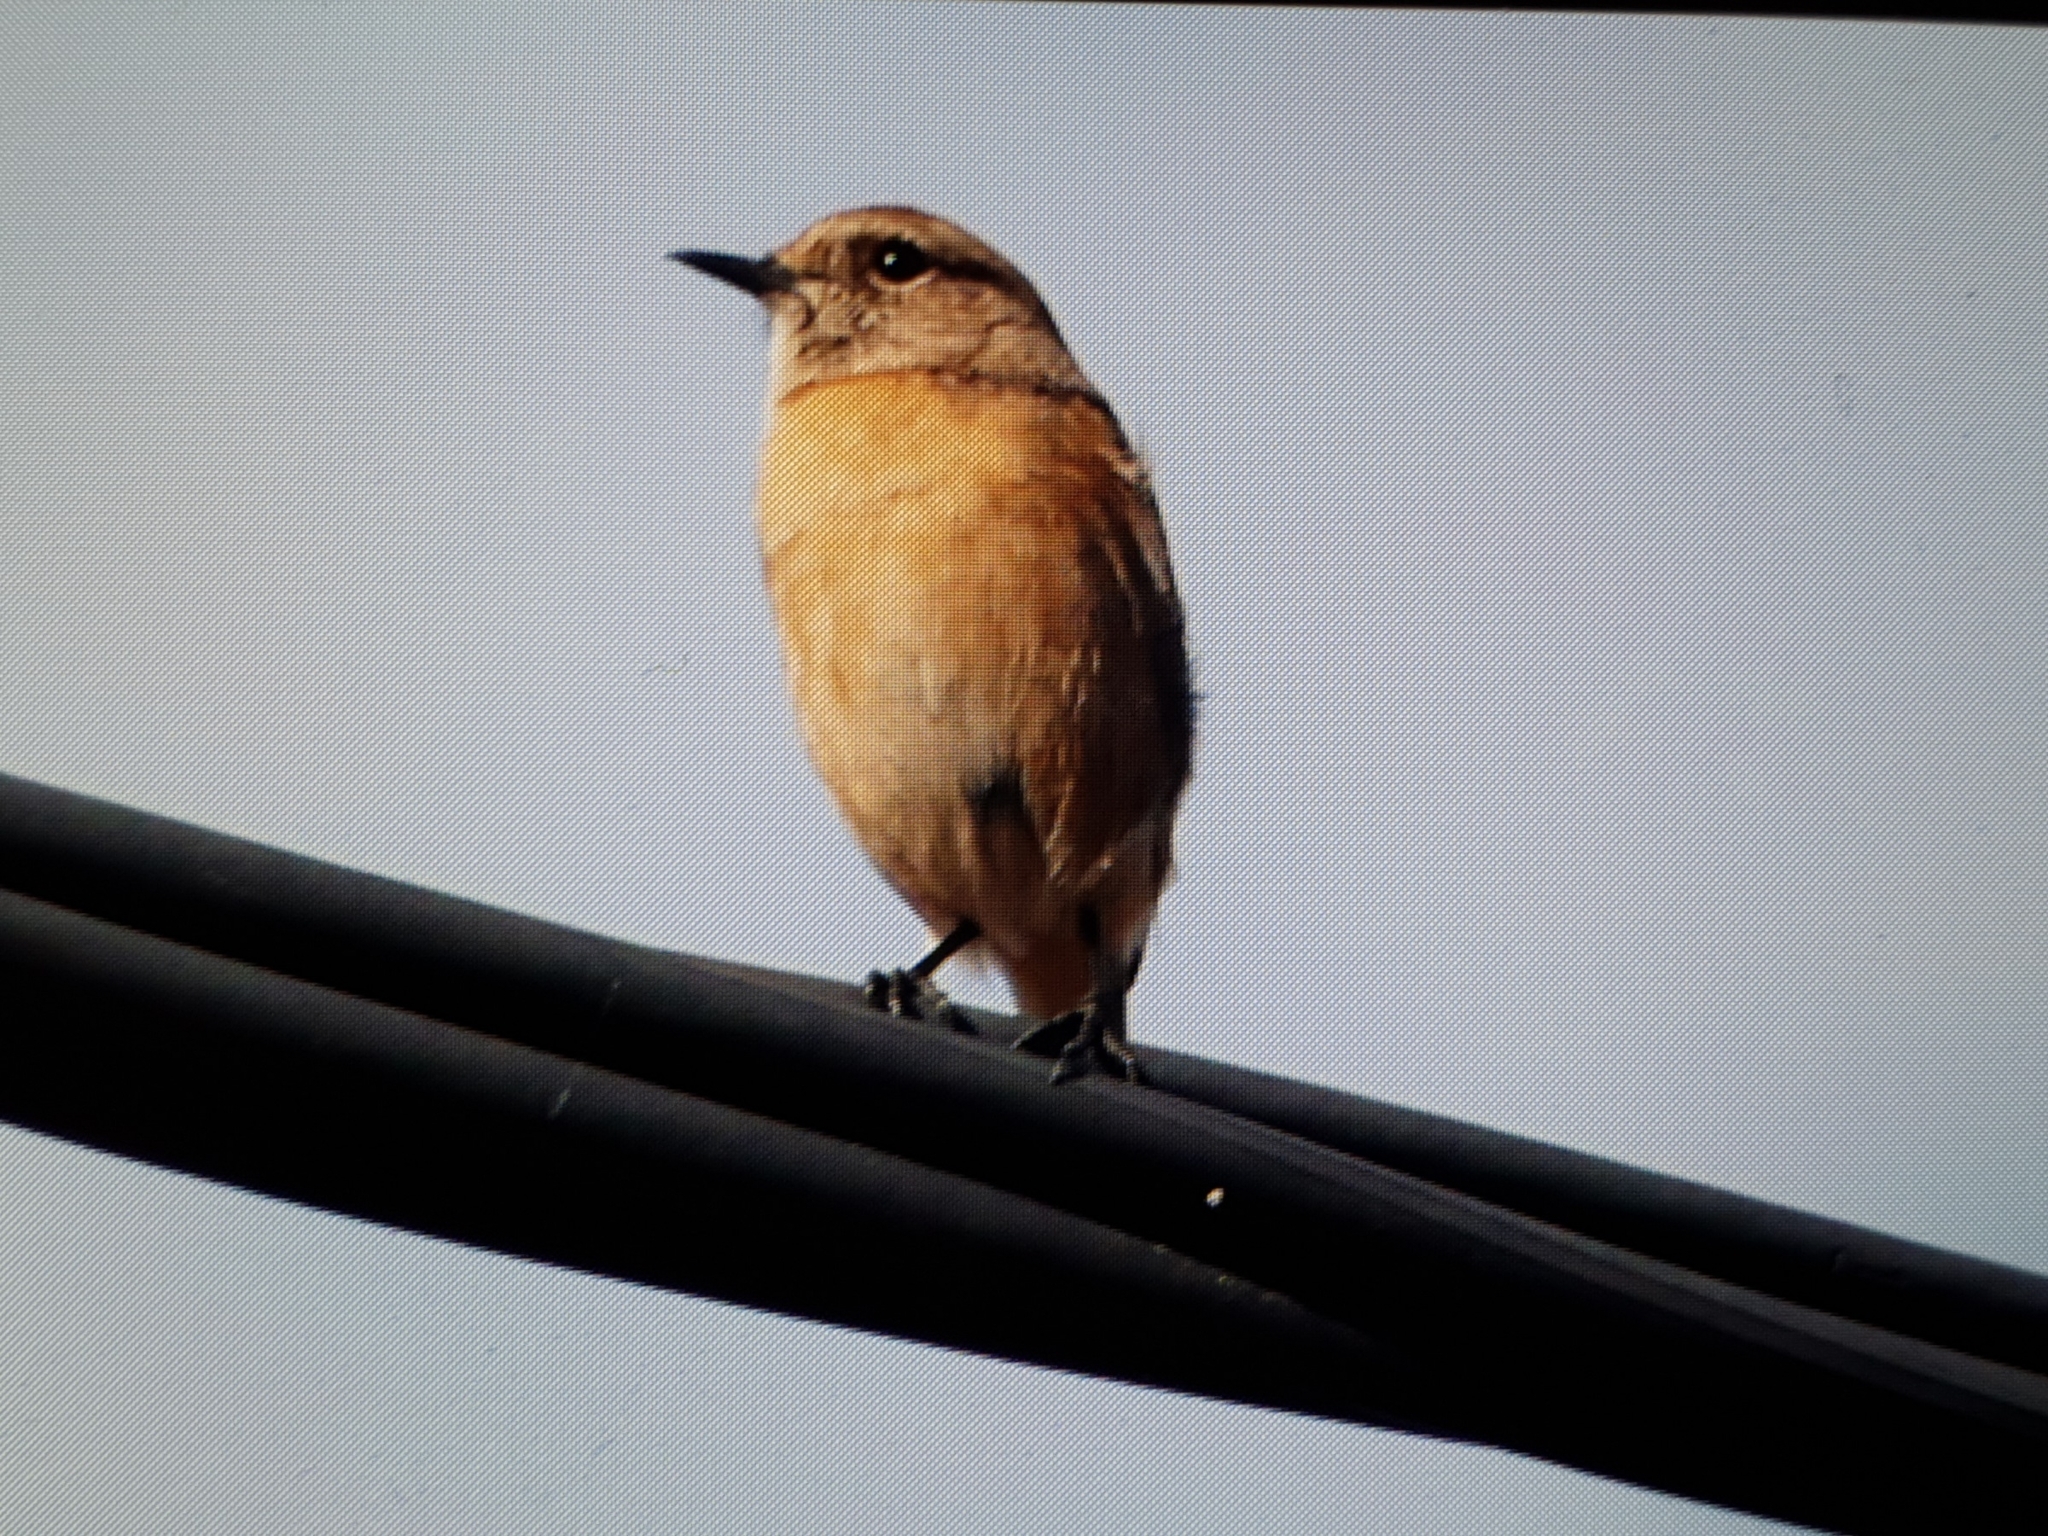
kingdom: Animalia
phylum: Chordata
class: Aves
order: Passeriformes
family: Muscicapidae
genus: Saxicola
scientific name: Saxicola rubicola
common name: European stonechat
